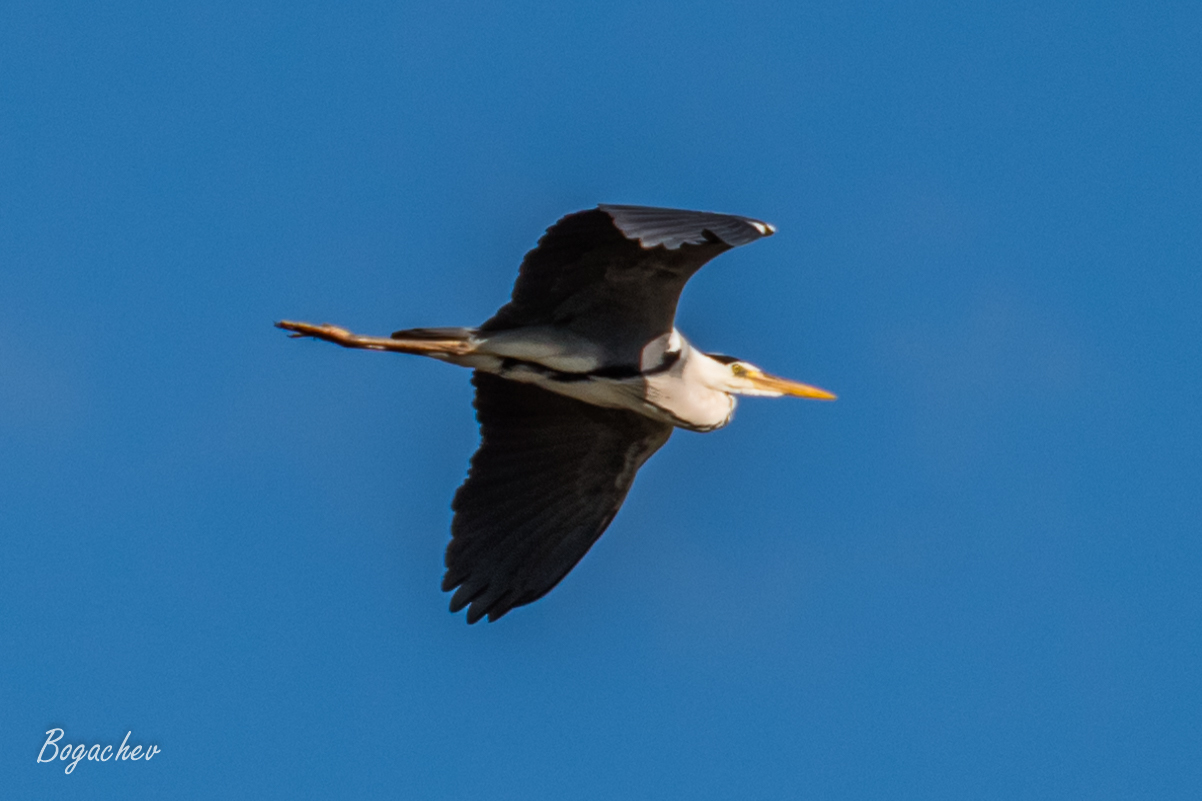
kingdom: Animalia
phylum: Chordata
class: Aves
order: Pelecaniformes
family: Ardeidae
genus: Ardea
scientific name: Ardea cinerea
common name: Grey heron
